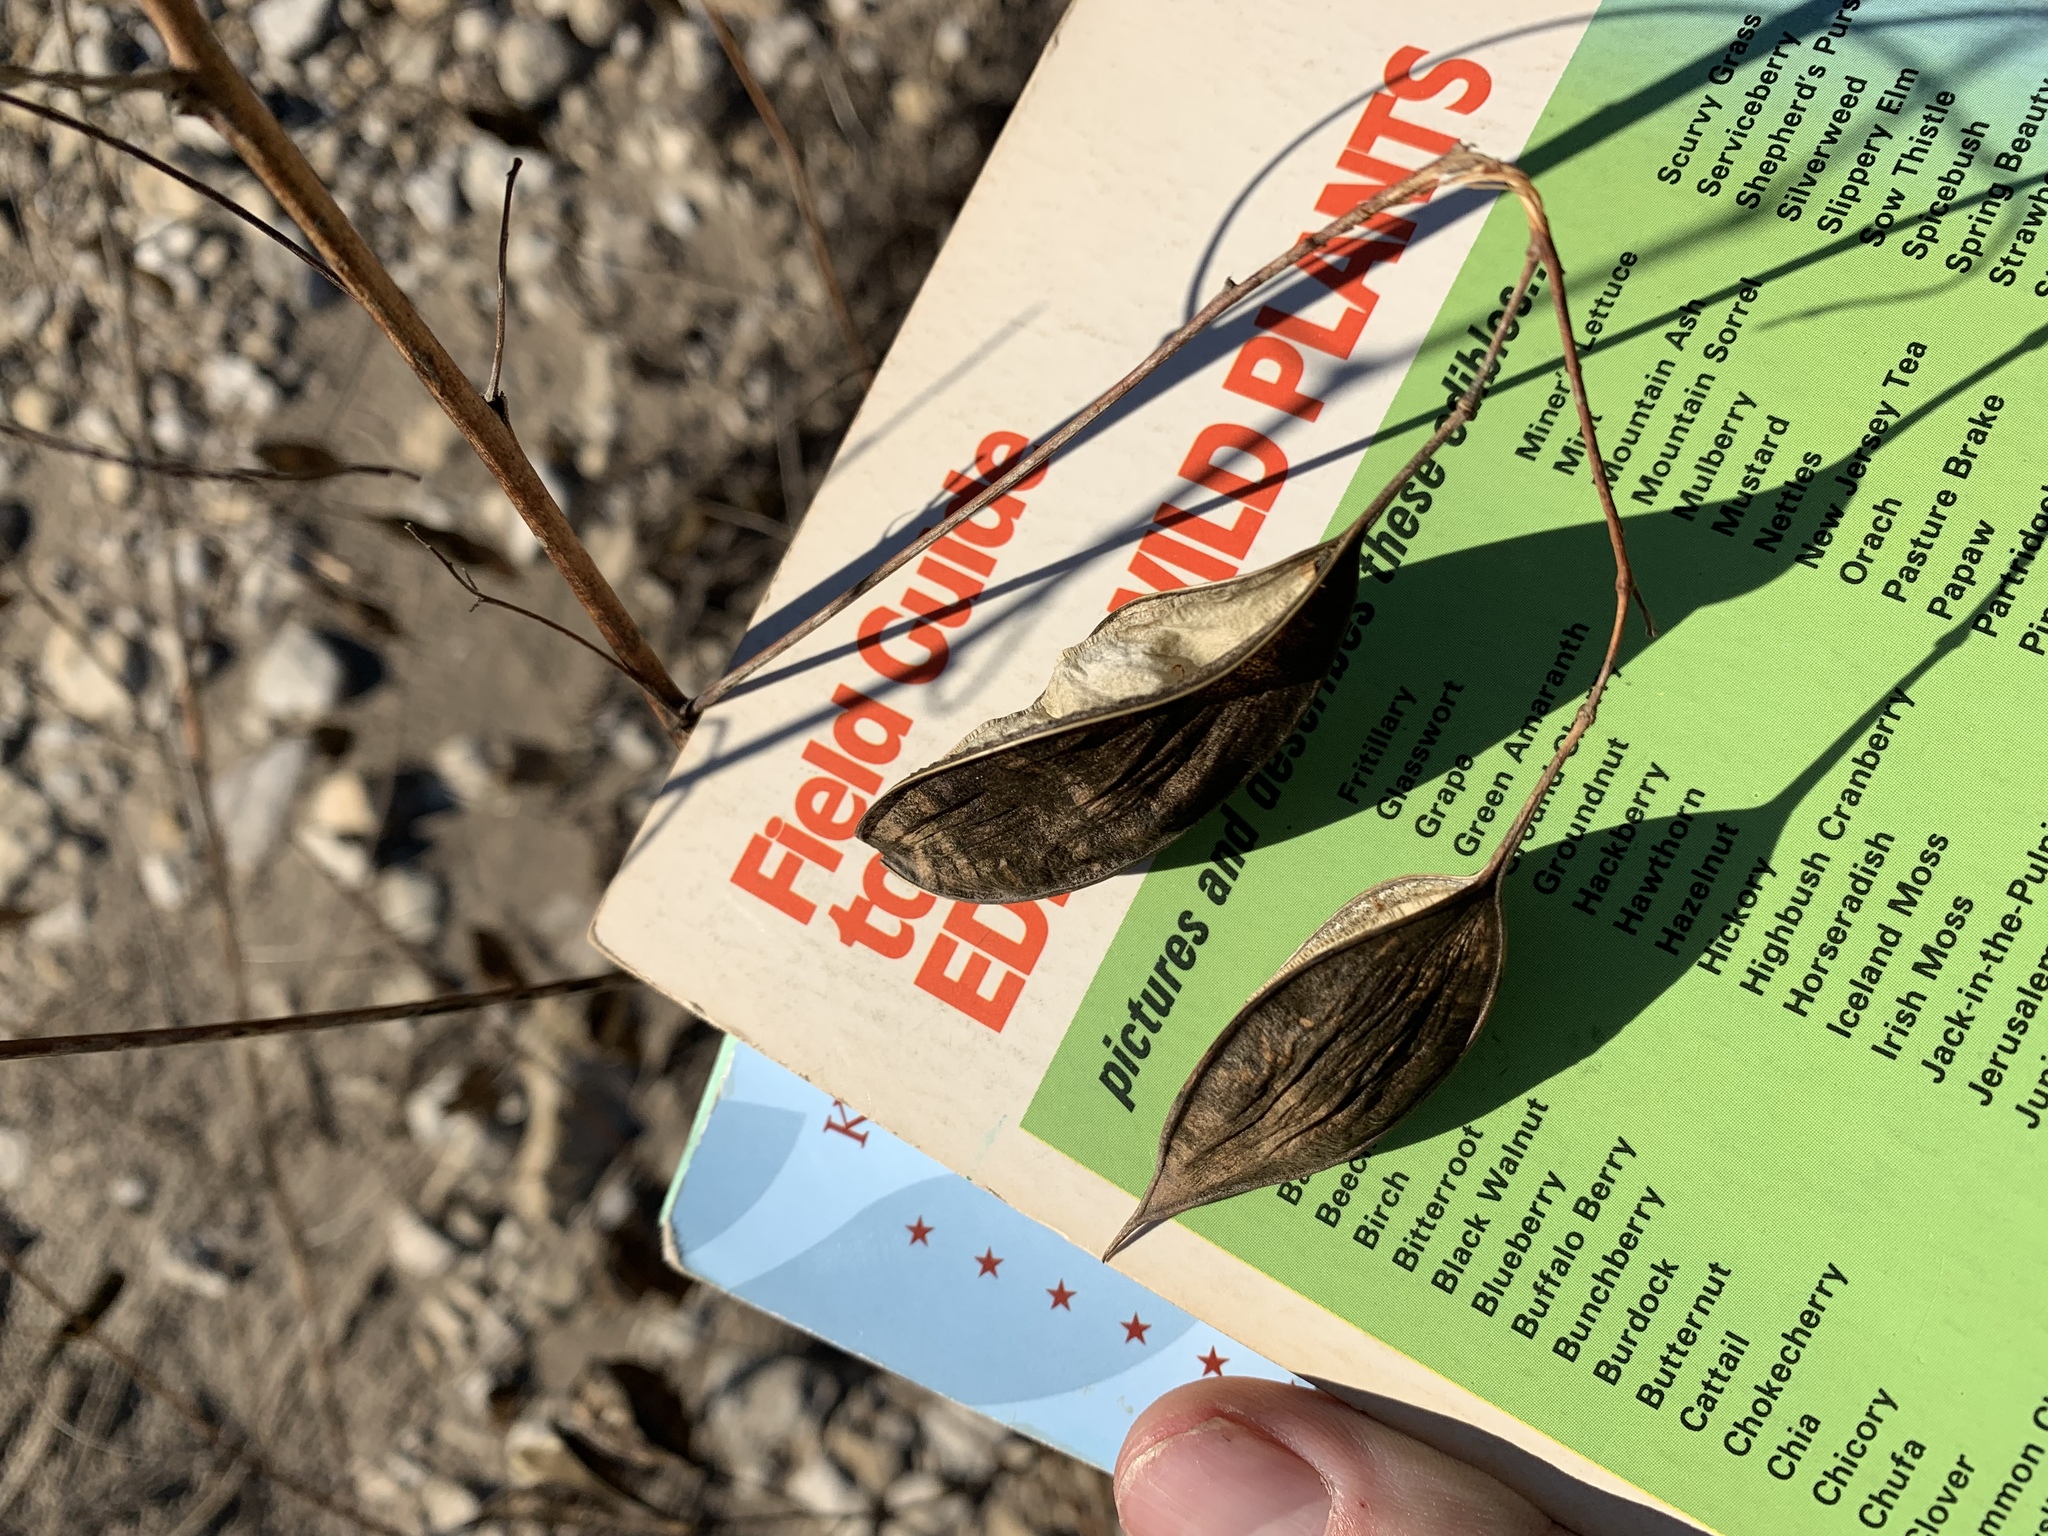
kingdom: Plantae
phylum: Tracheophyta
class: Magnoliopsida
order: Fabales
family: Fabaceae
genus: Sesbania
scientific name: Sesbania vesicaria
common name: Bagpod
